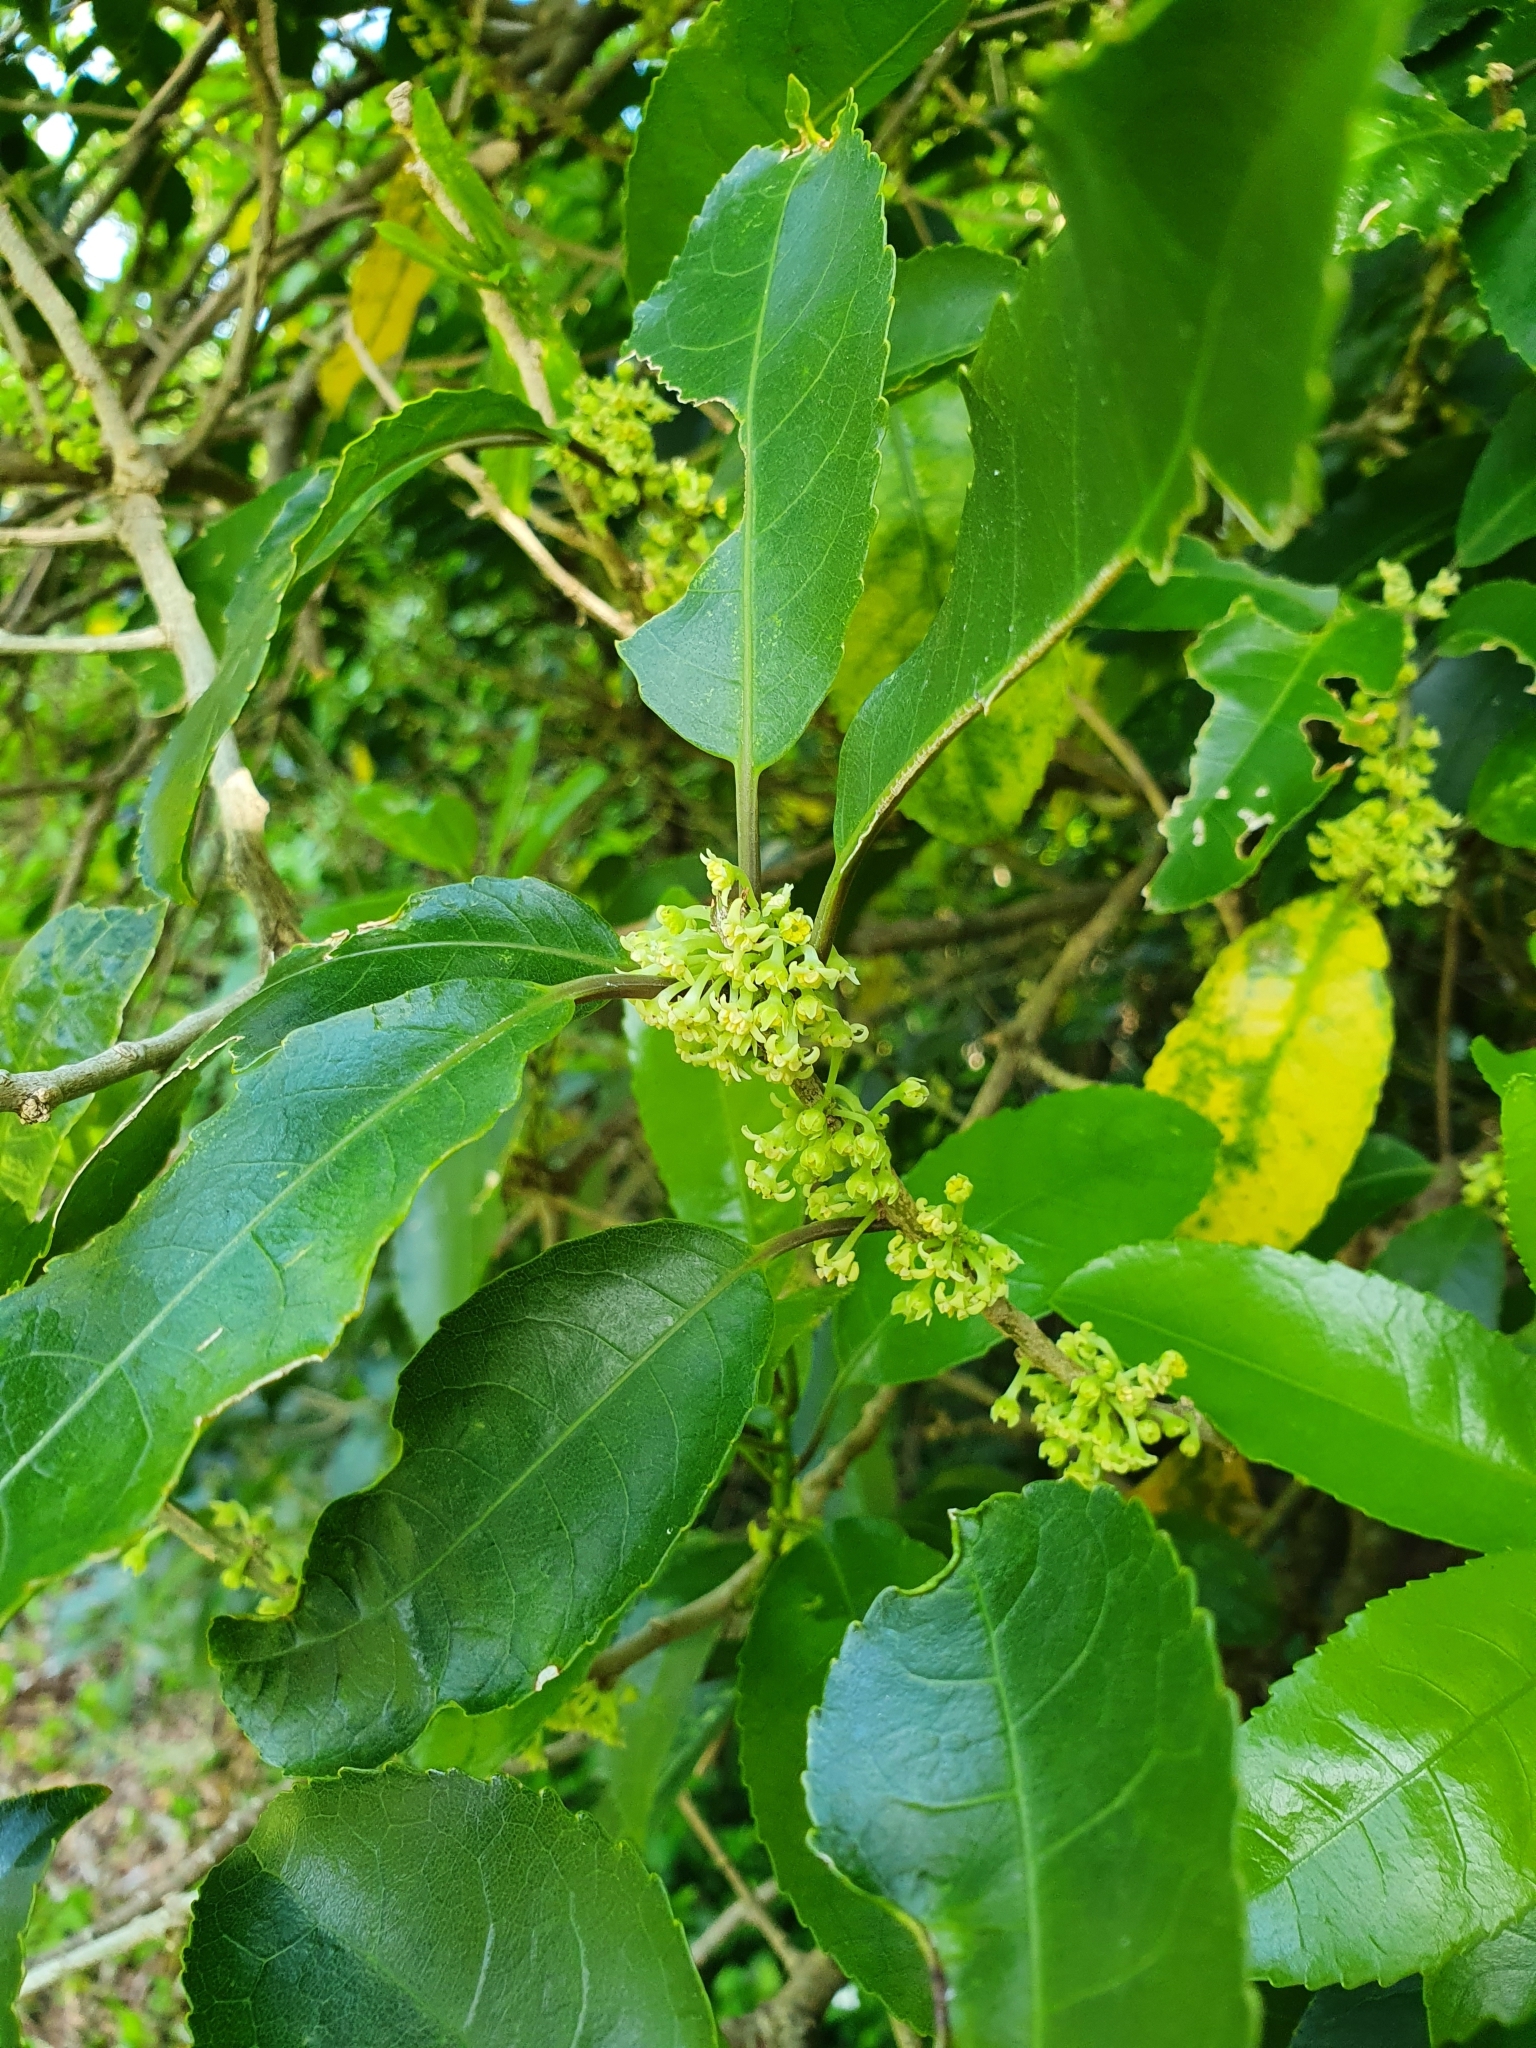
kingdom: Plantae
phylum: Tracheophyta
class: Magnoliopsida
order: Malpighiales
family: Violaceae
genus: Melicytus
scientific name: Melicytus ramiflorus
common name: Mahoe
